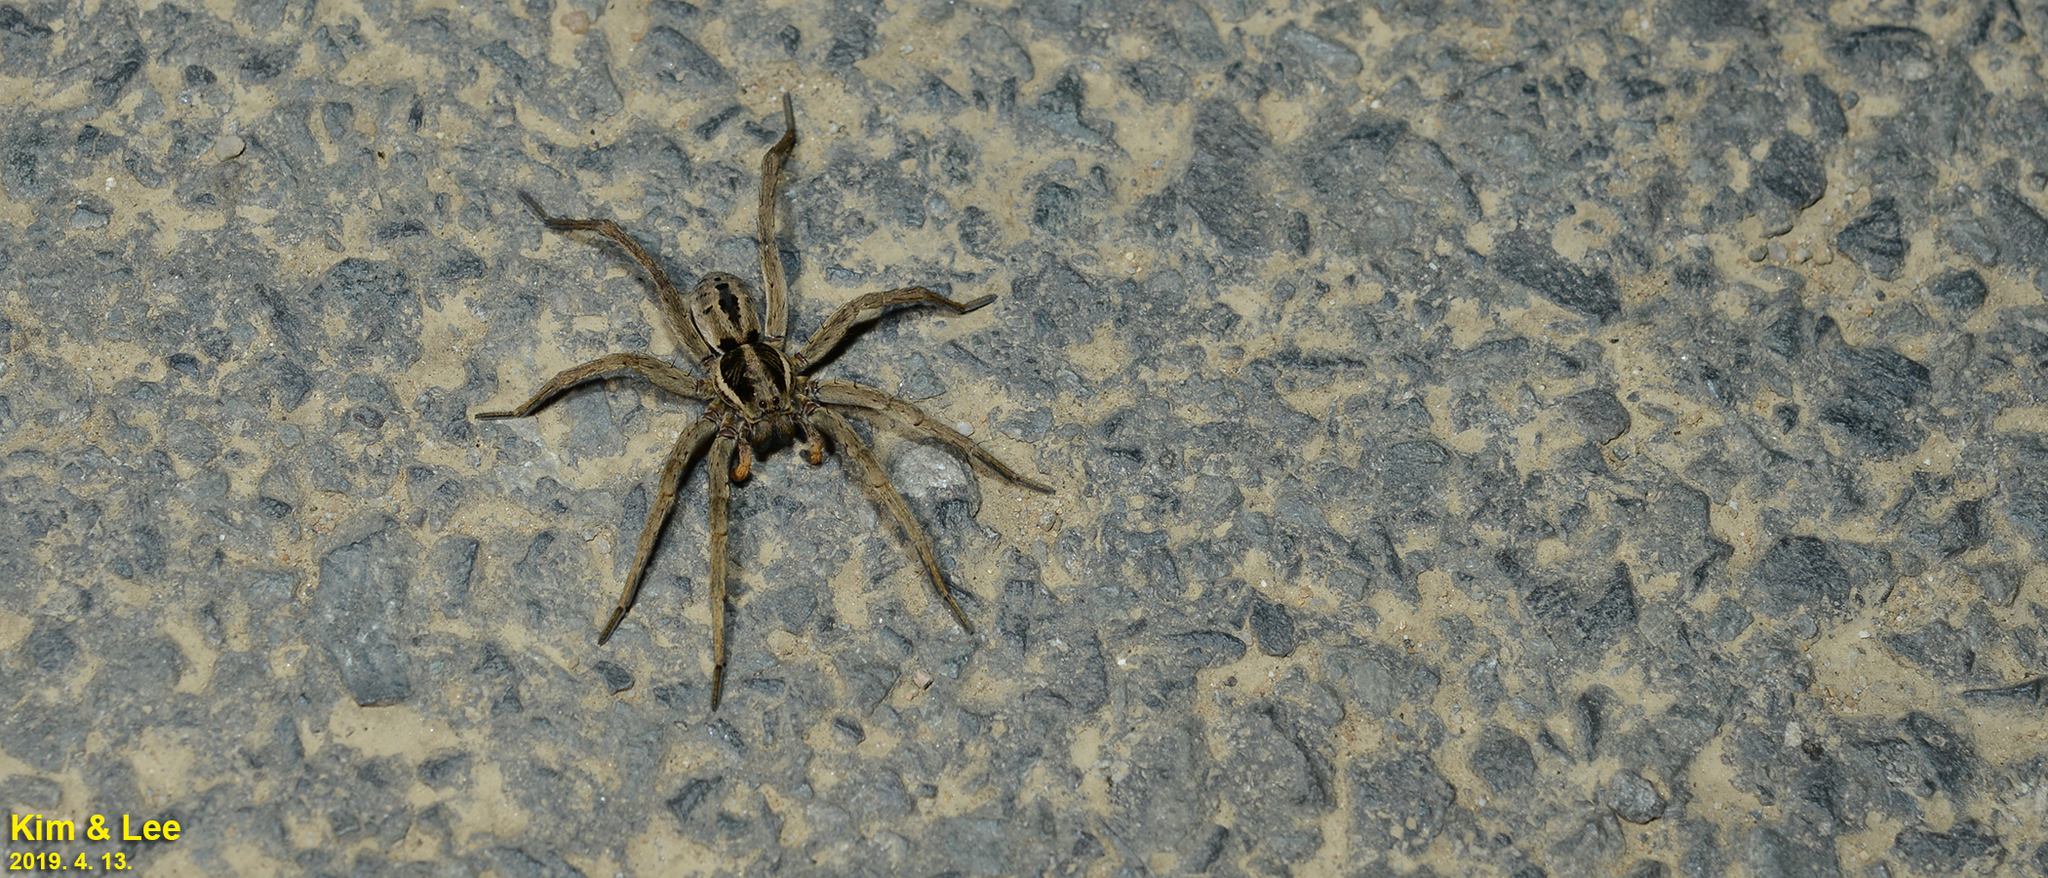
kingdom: Animalia
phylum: Arthropoda
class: Arachnida
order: Araneae
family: Lycosidae
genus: Lycosa
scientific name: Lycosa suzukii
